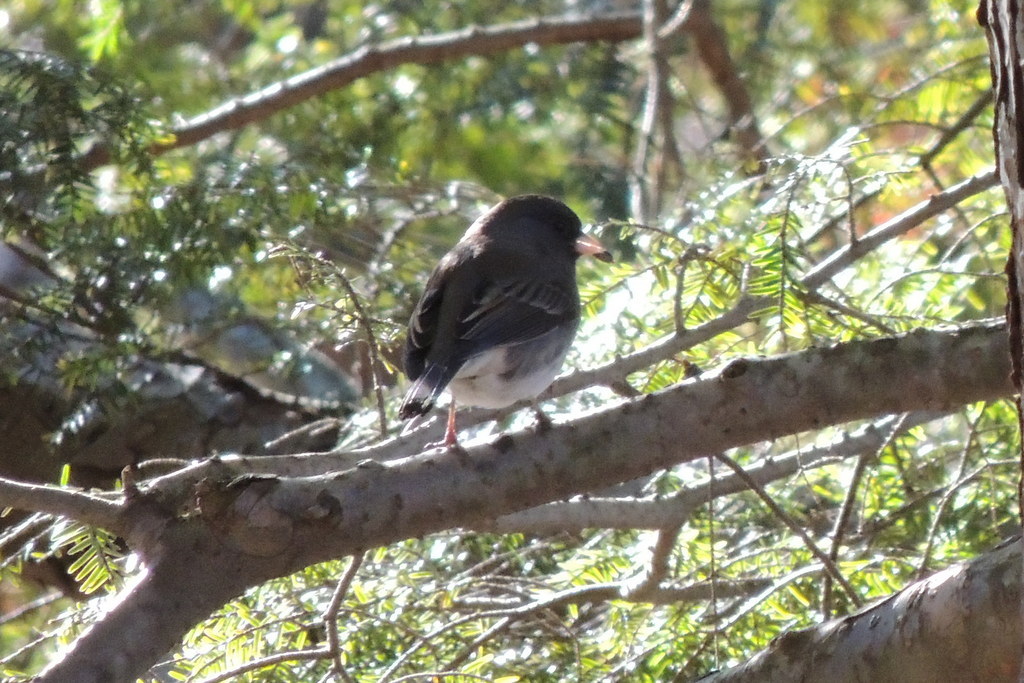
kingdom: Animalia
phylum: Chordata
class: Aves
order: Passeriformes
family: Passerellidae
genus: Junco
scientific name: Junco hyemalis
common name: Dark-eyed junco
